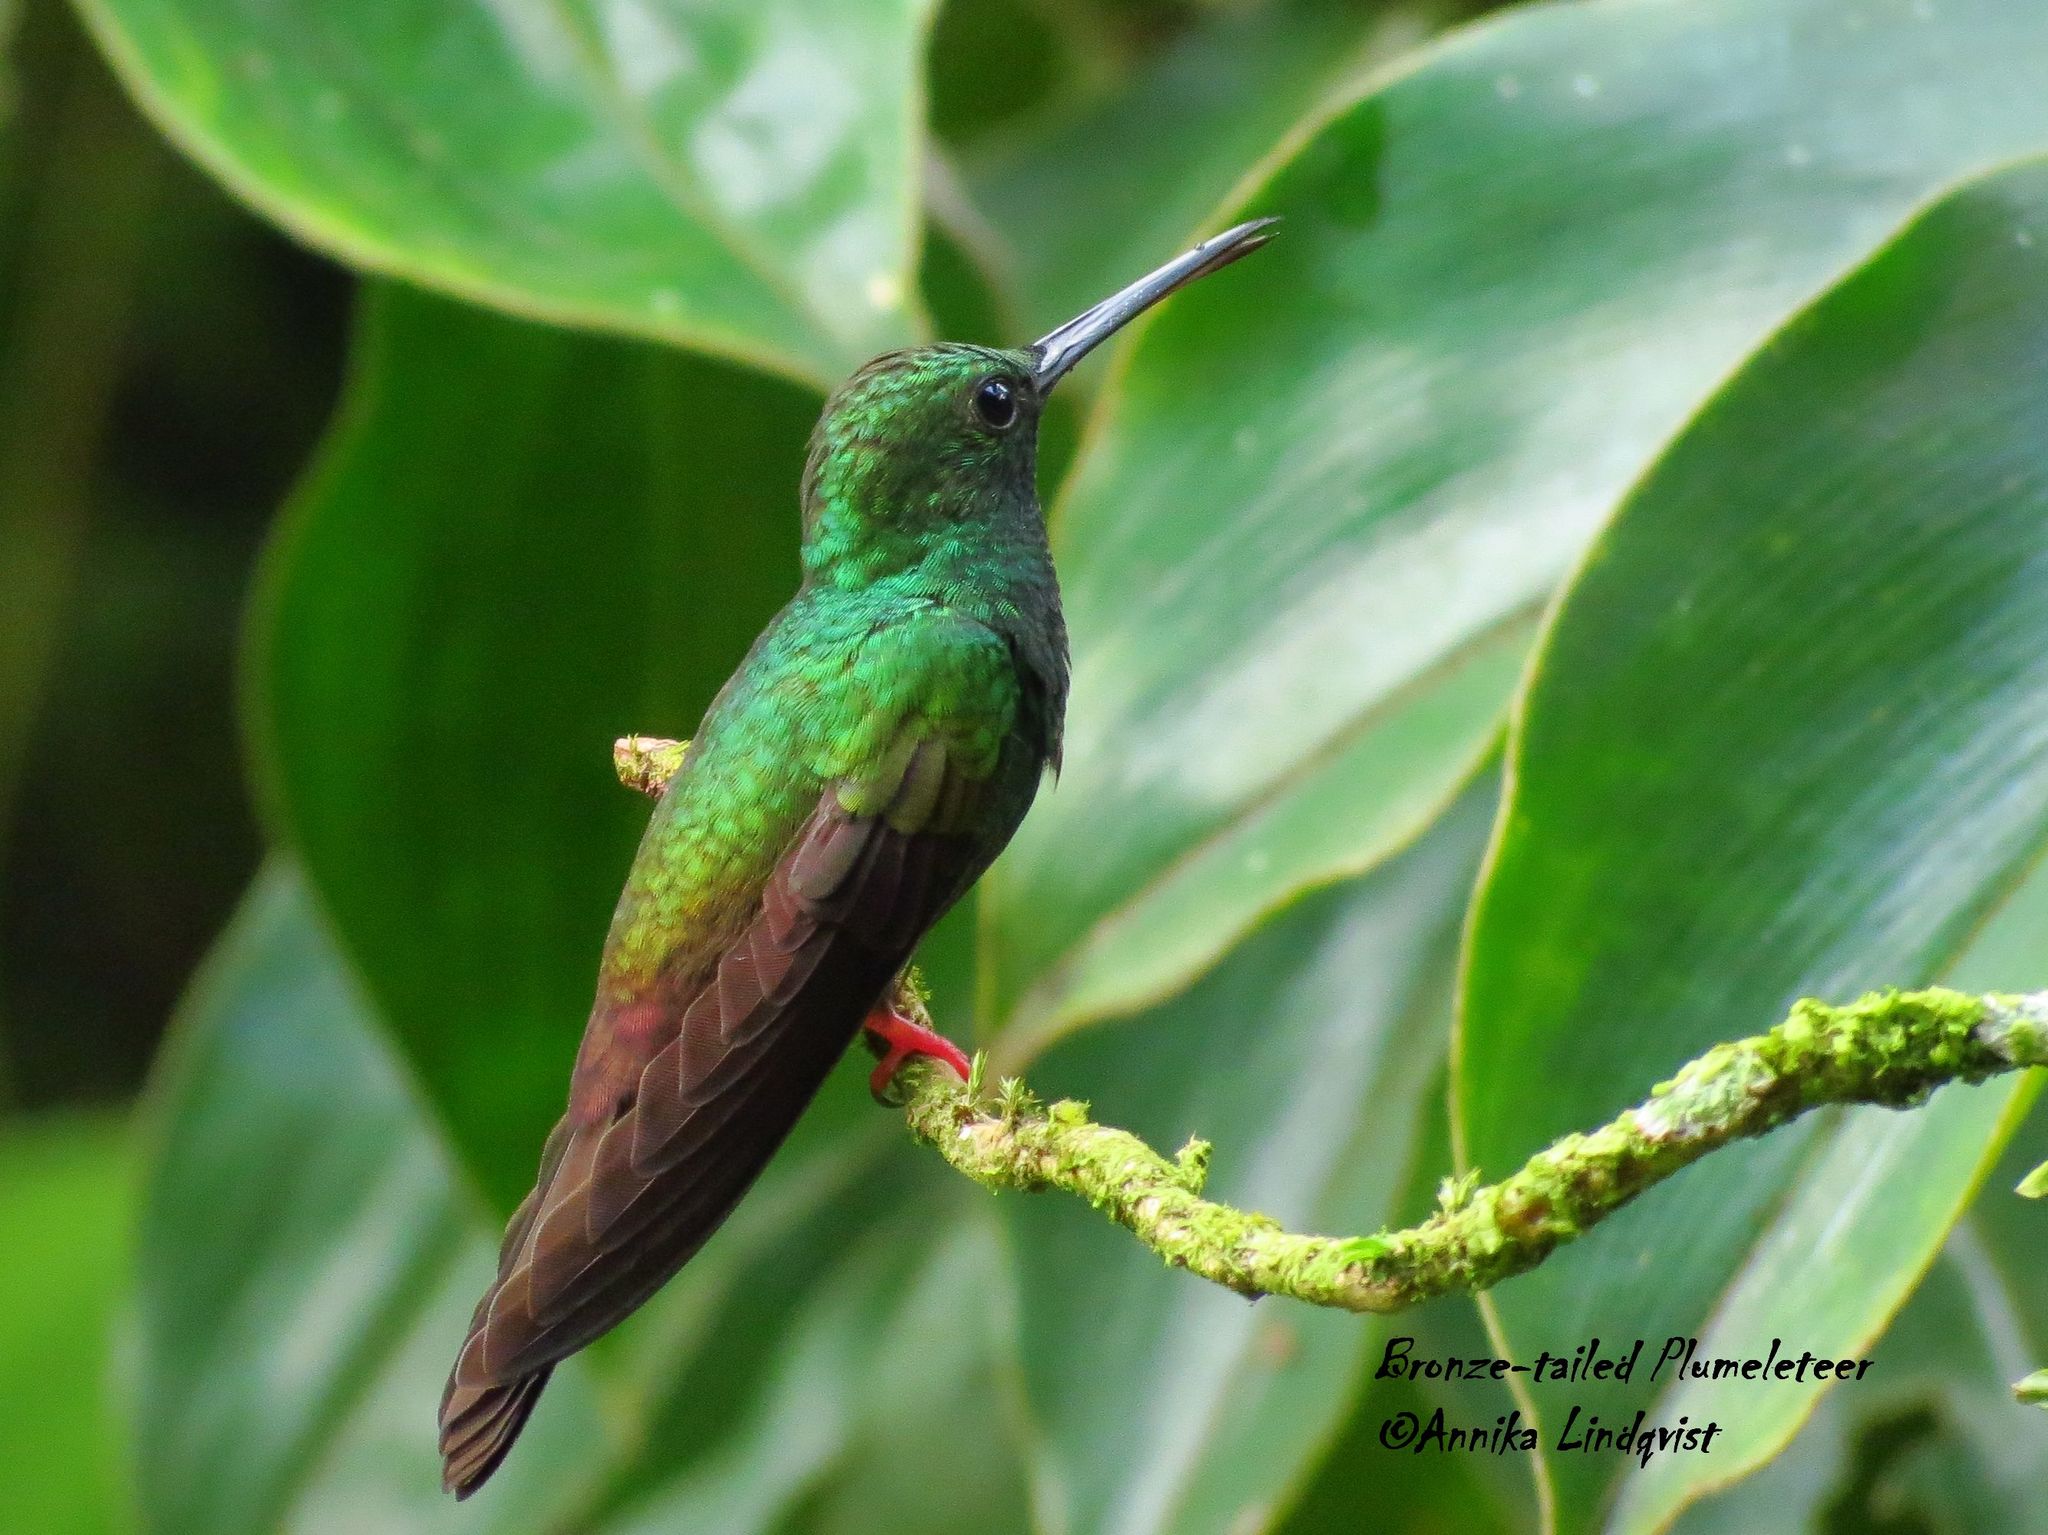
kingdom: Animalia
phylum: Chordata
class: Aves
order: Apodiformes
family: Trochilidae
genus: Chalybura
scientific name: Chalybura urochrysia
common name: Bronze-tailed plumeleteer
